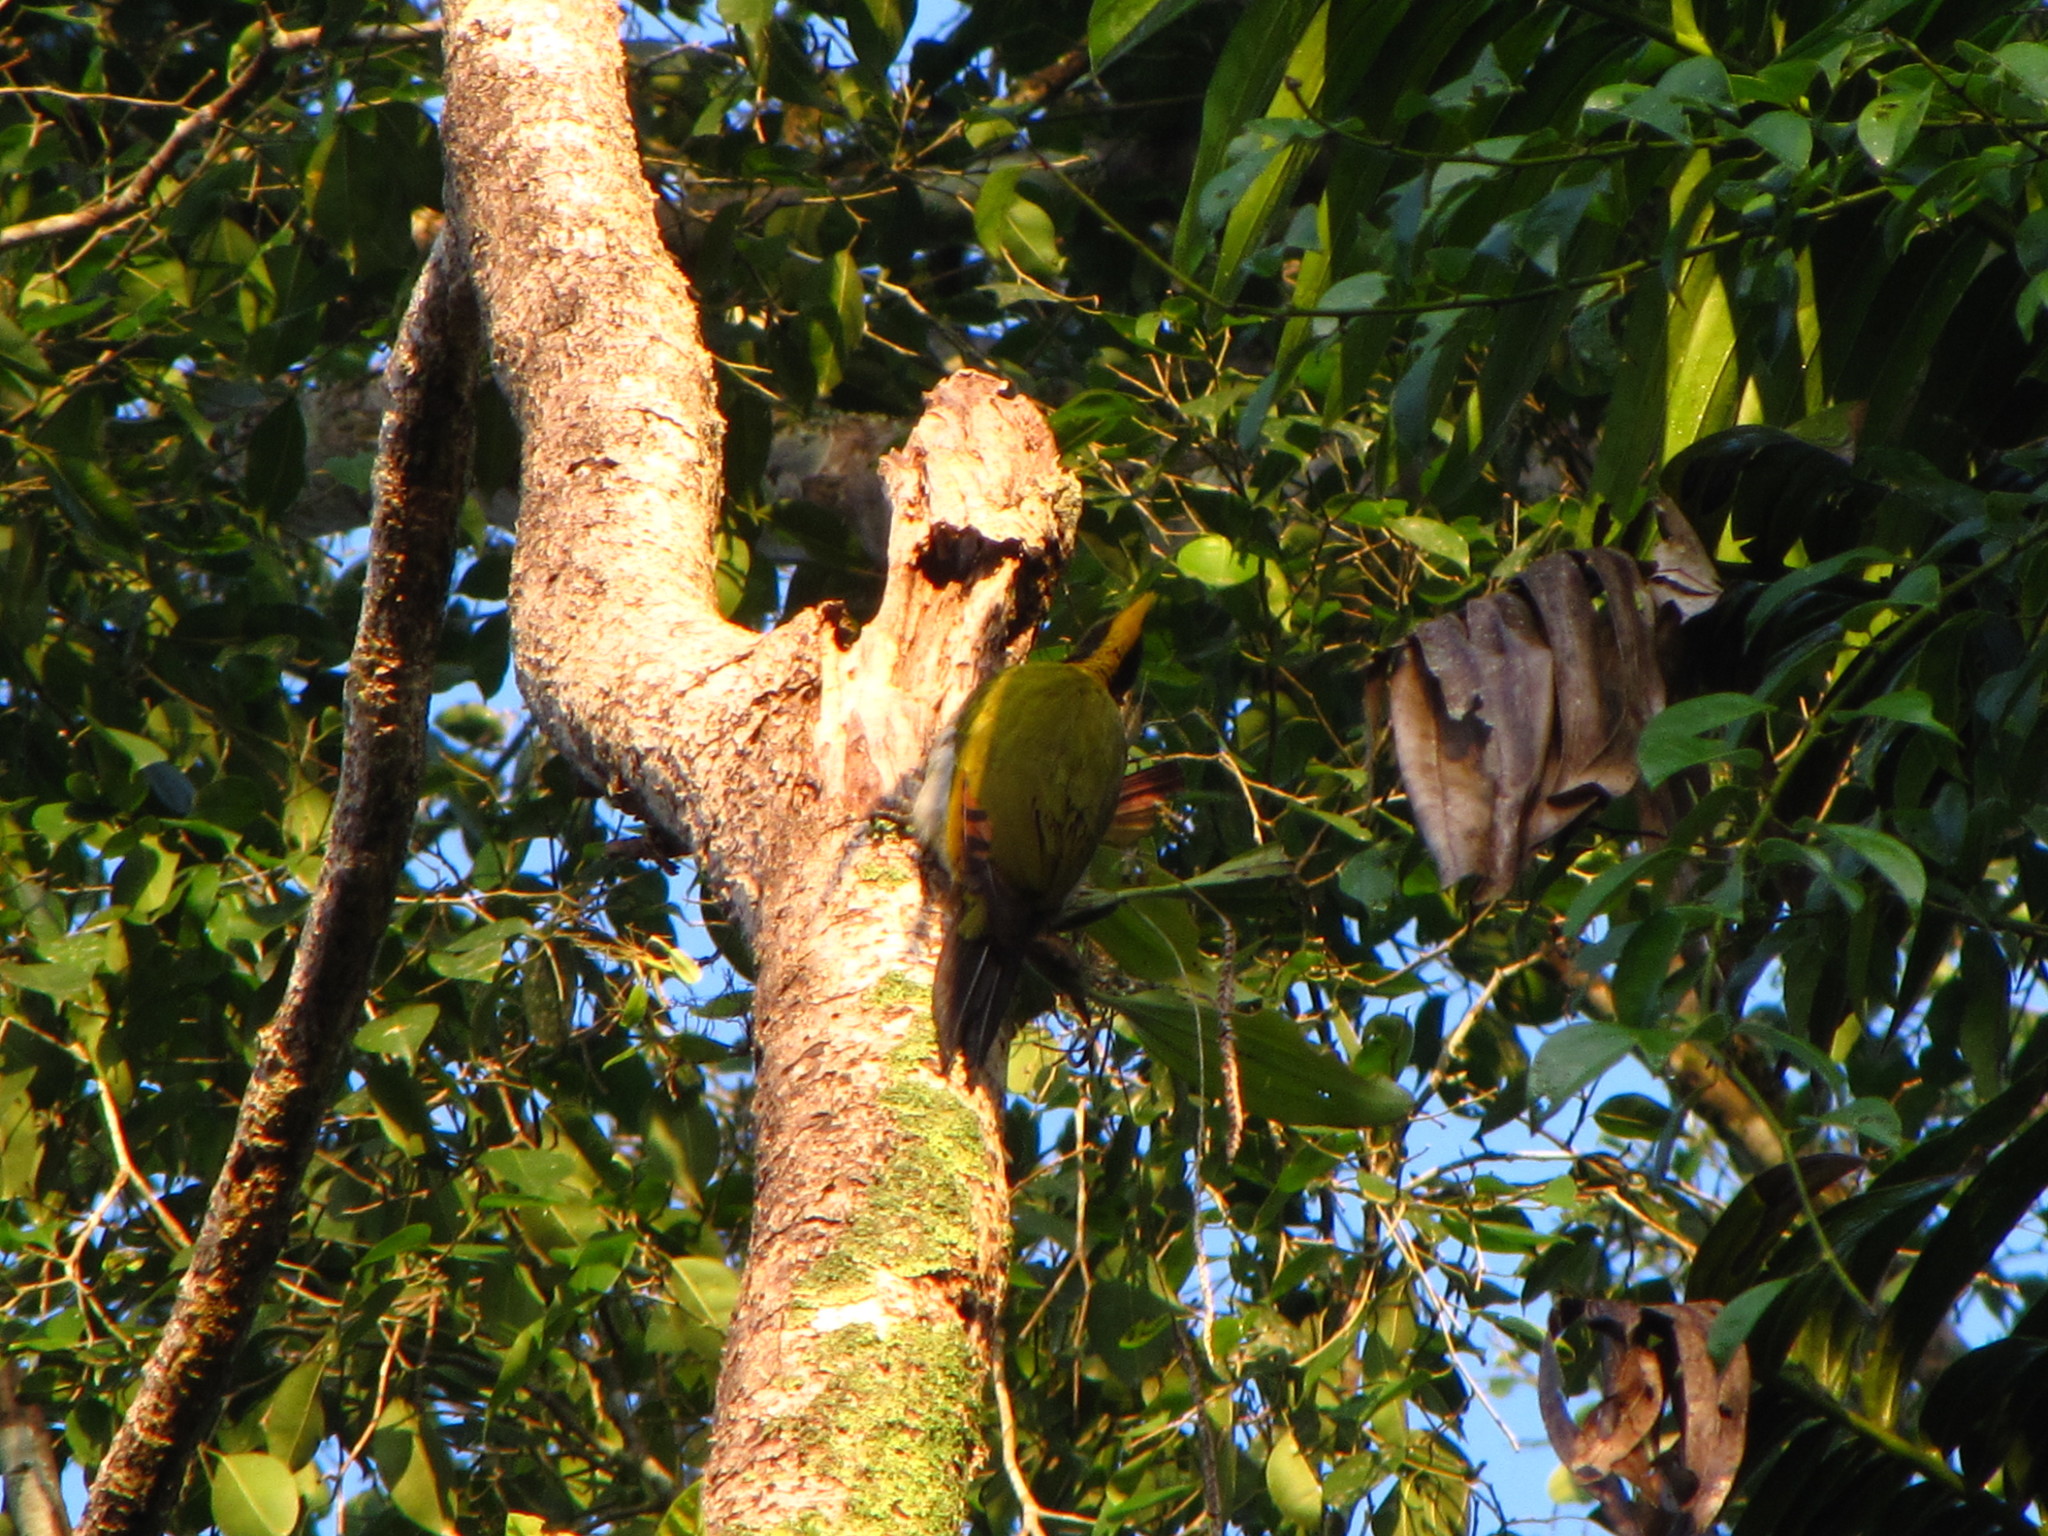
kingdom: Animalia
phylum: Chordata
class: Aves
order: Piciformes
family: Picidae
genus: Chrysophlegma
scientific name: Chrysophlegma flavinucha
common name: Greater yellownape
